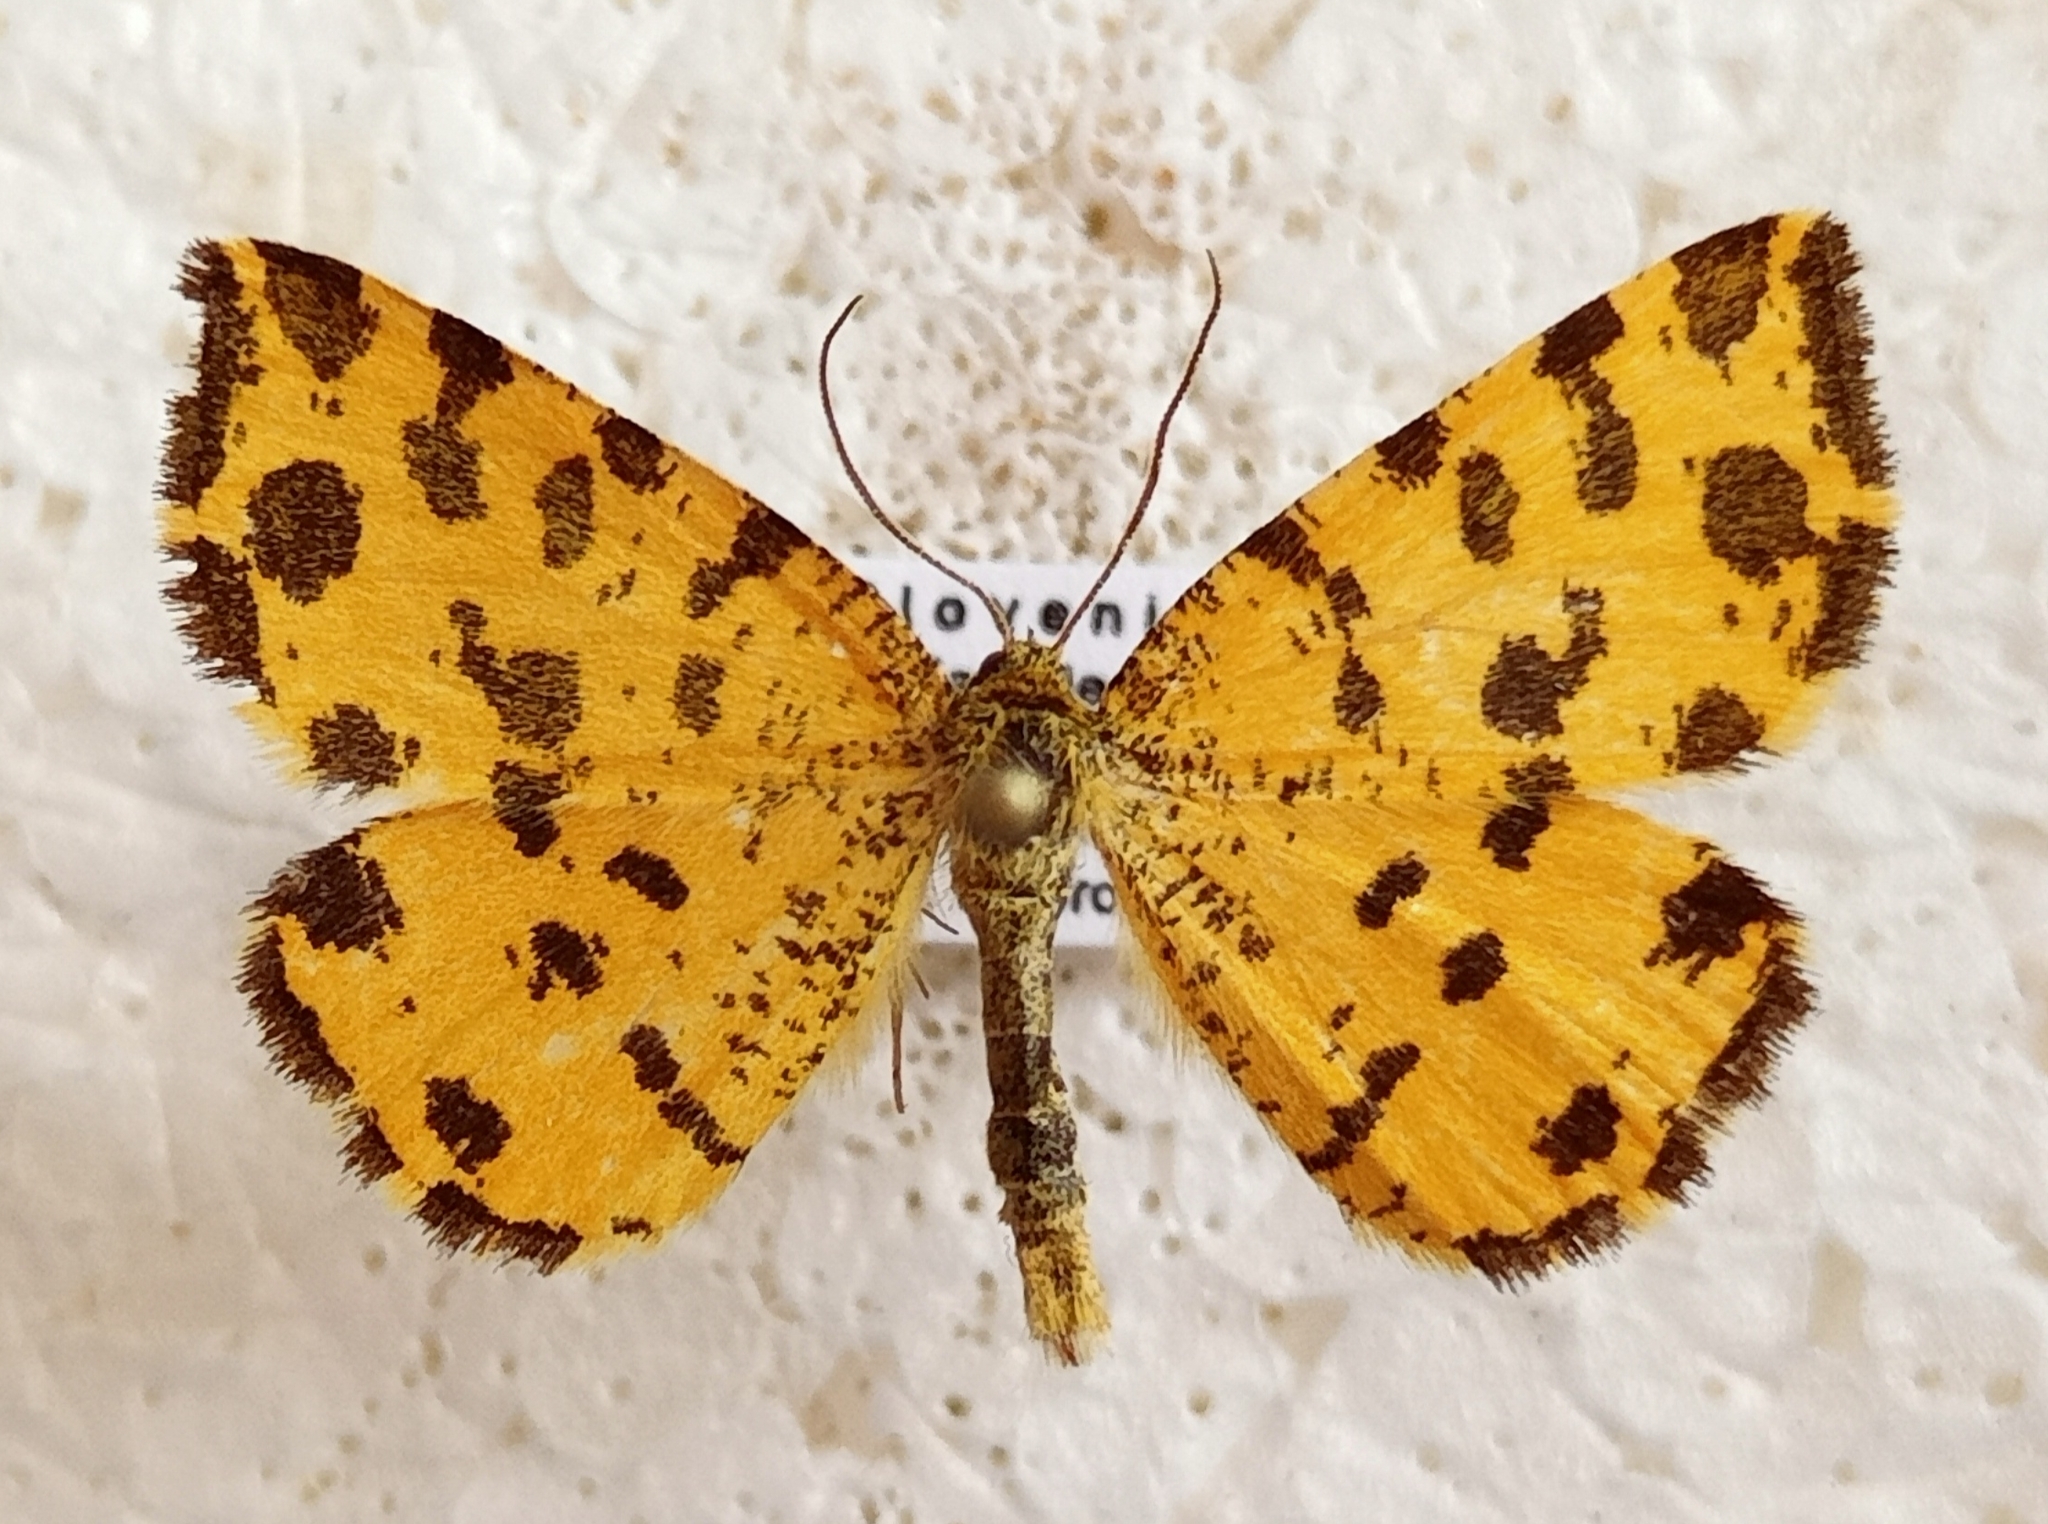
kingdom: Animalia
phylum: Arthropoda
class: Insecta
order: Lepidoptera
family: Geometridae
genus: Pseudopanthera
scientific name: Pseudopanthera macularia
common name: Speckled yellow
